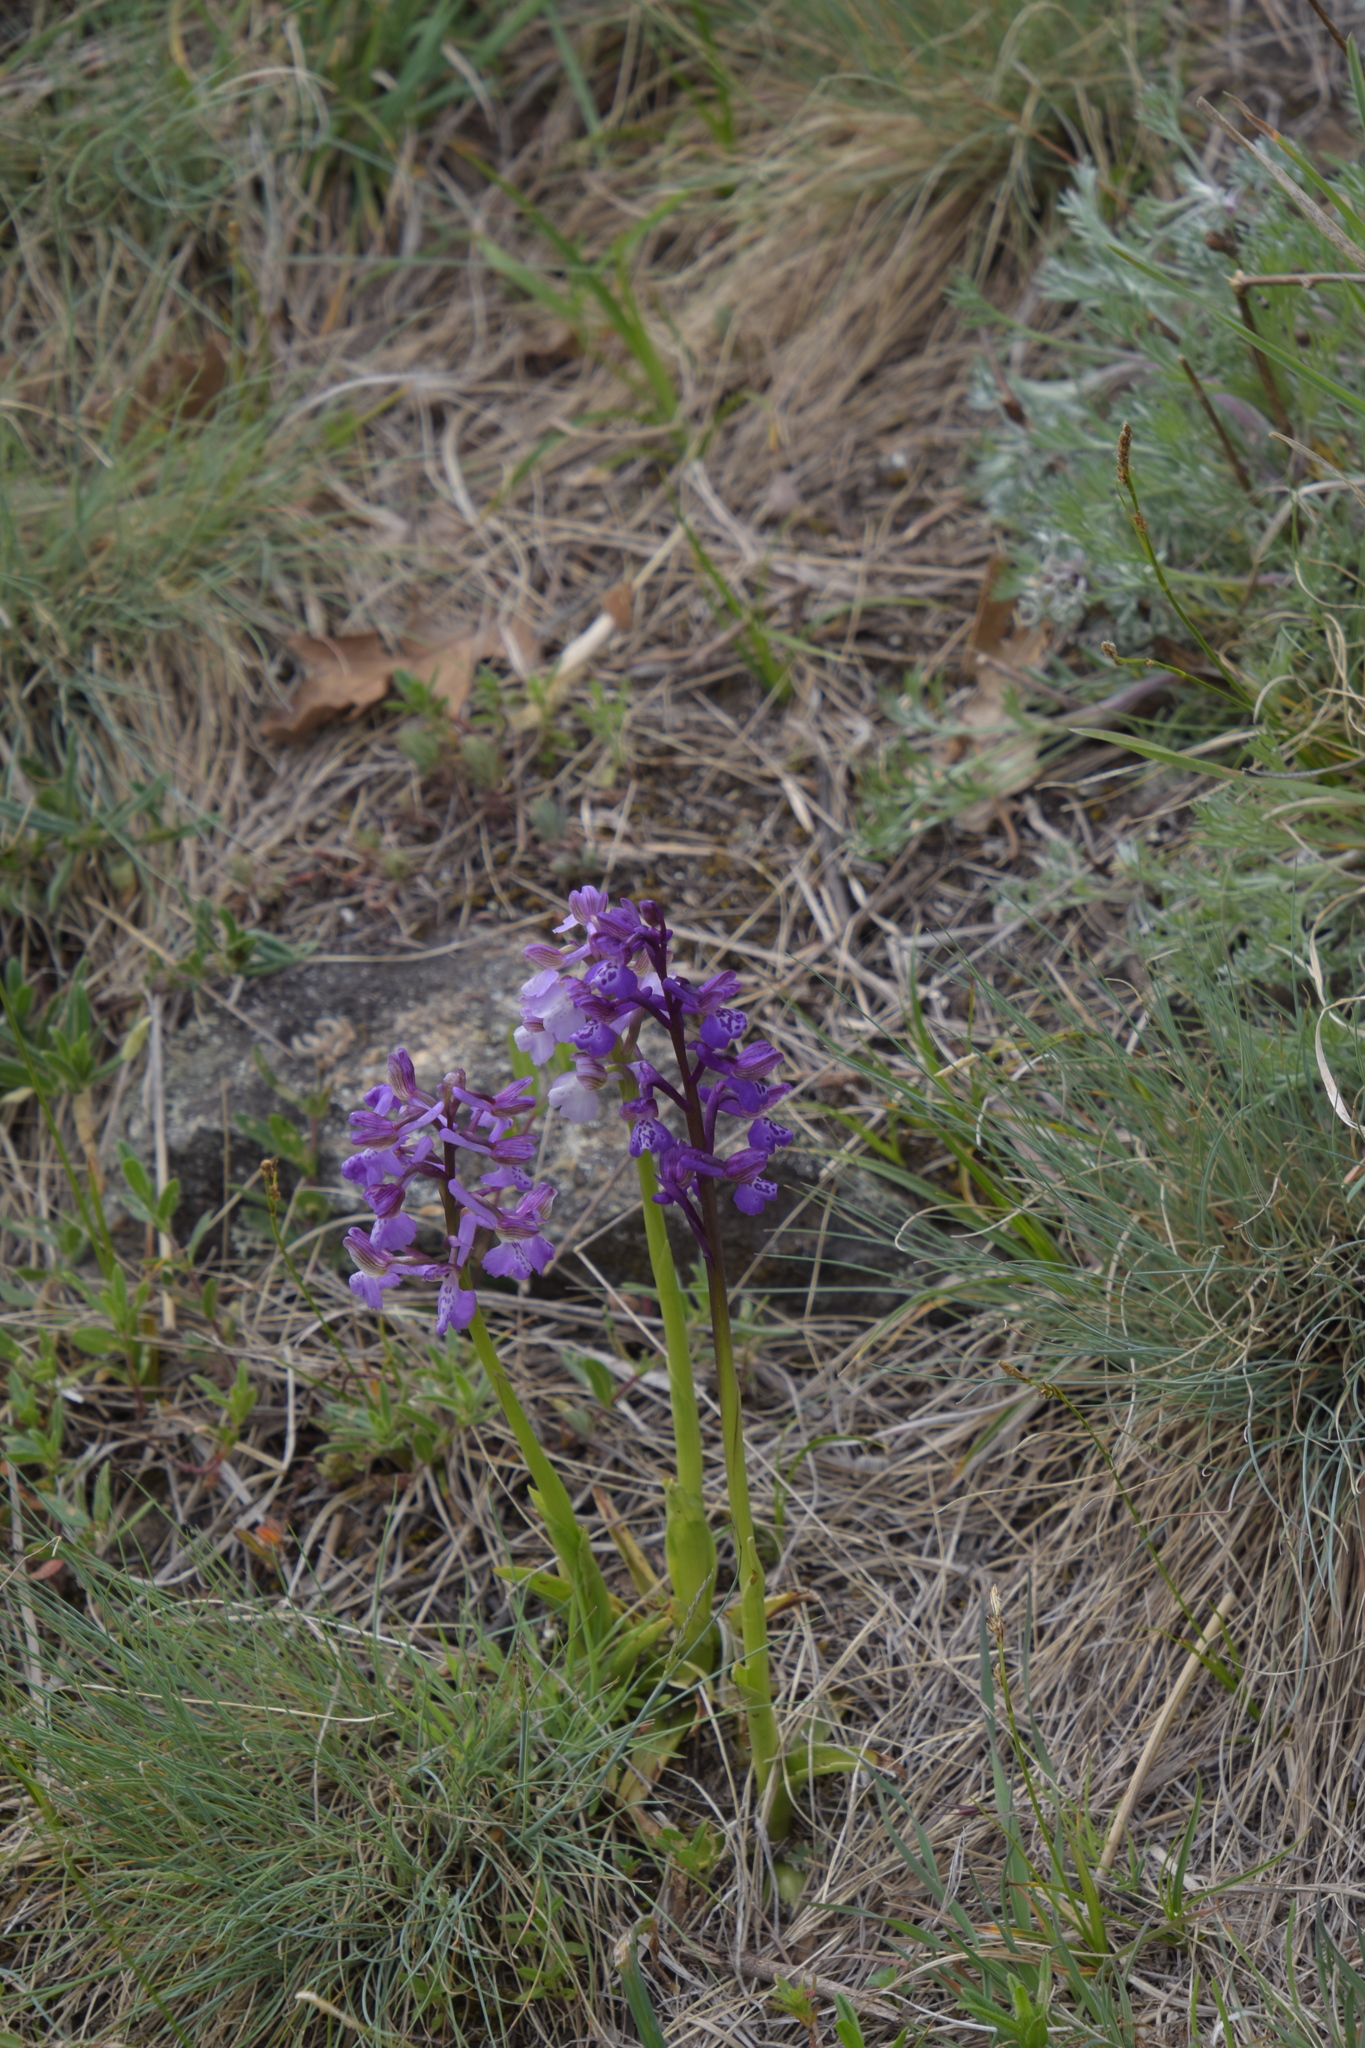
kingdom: Plantae
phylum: Tracheophyta
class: Liliopsida
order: Asparagales
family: Orchidaceae
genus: Anacamptis
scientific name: Anacamptis morio
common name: Green-winged orchid
